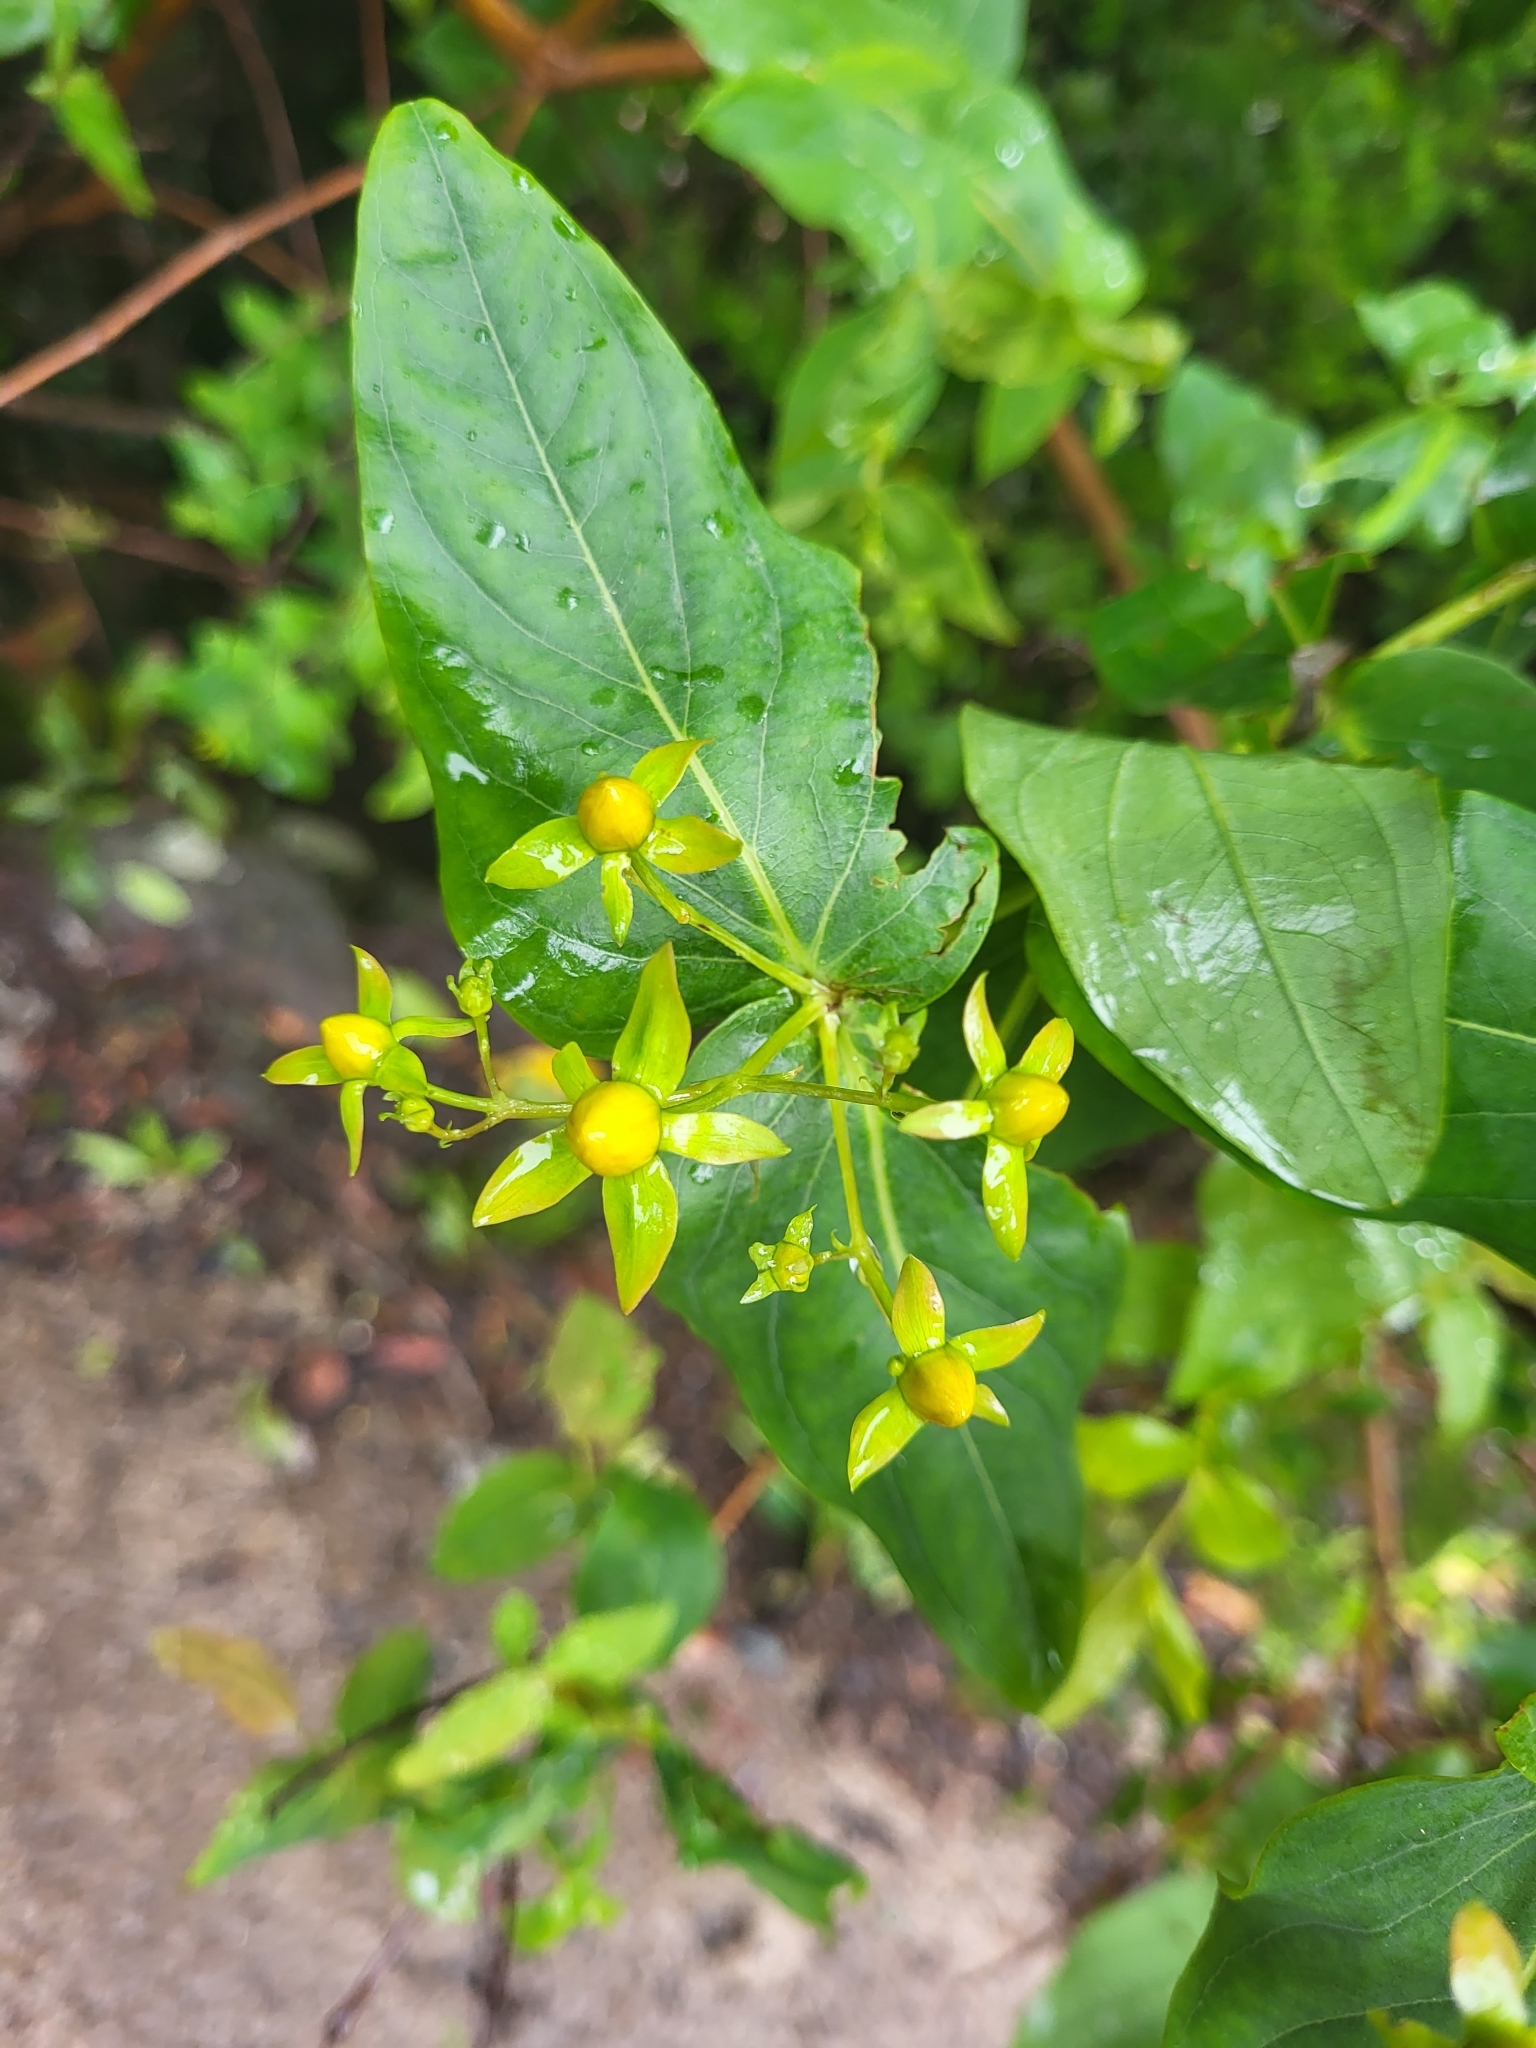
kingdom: Plantae
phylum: Tracheophyta
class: Magnoliopsida
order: Malpighiales
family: Hypericaceae
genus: Hypericum
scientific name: Hypericum grandifolium
